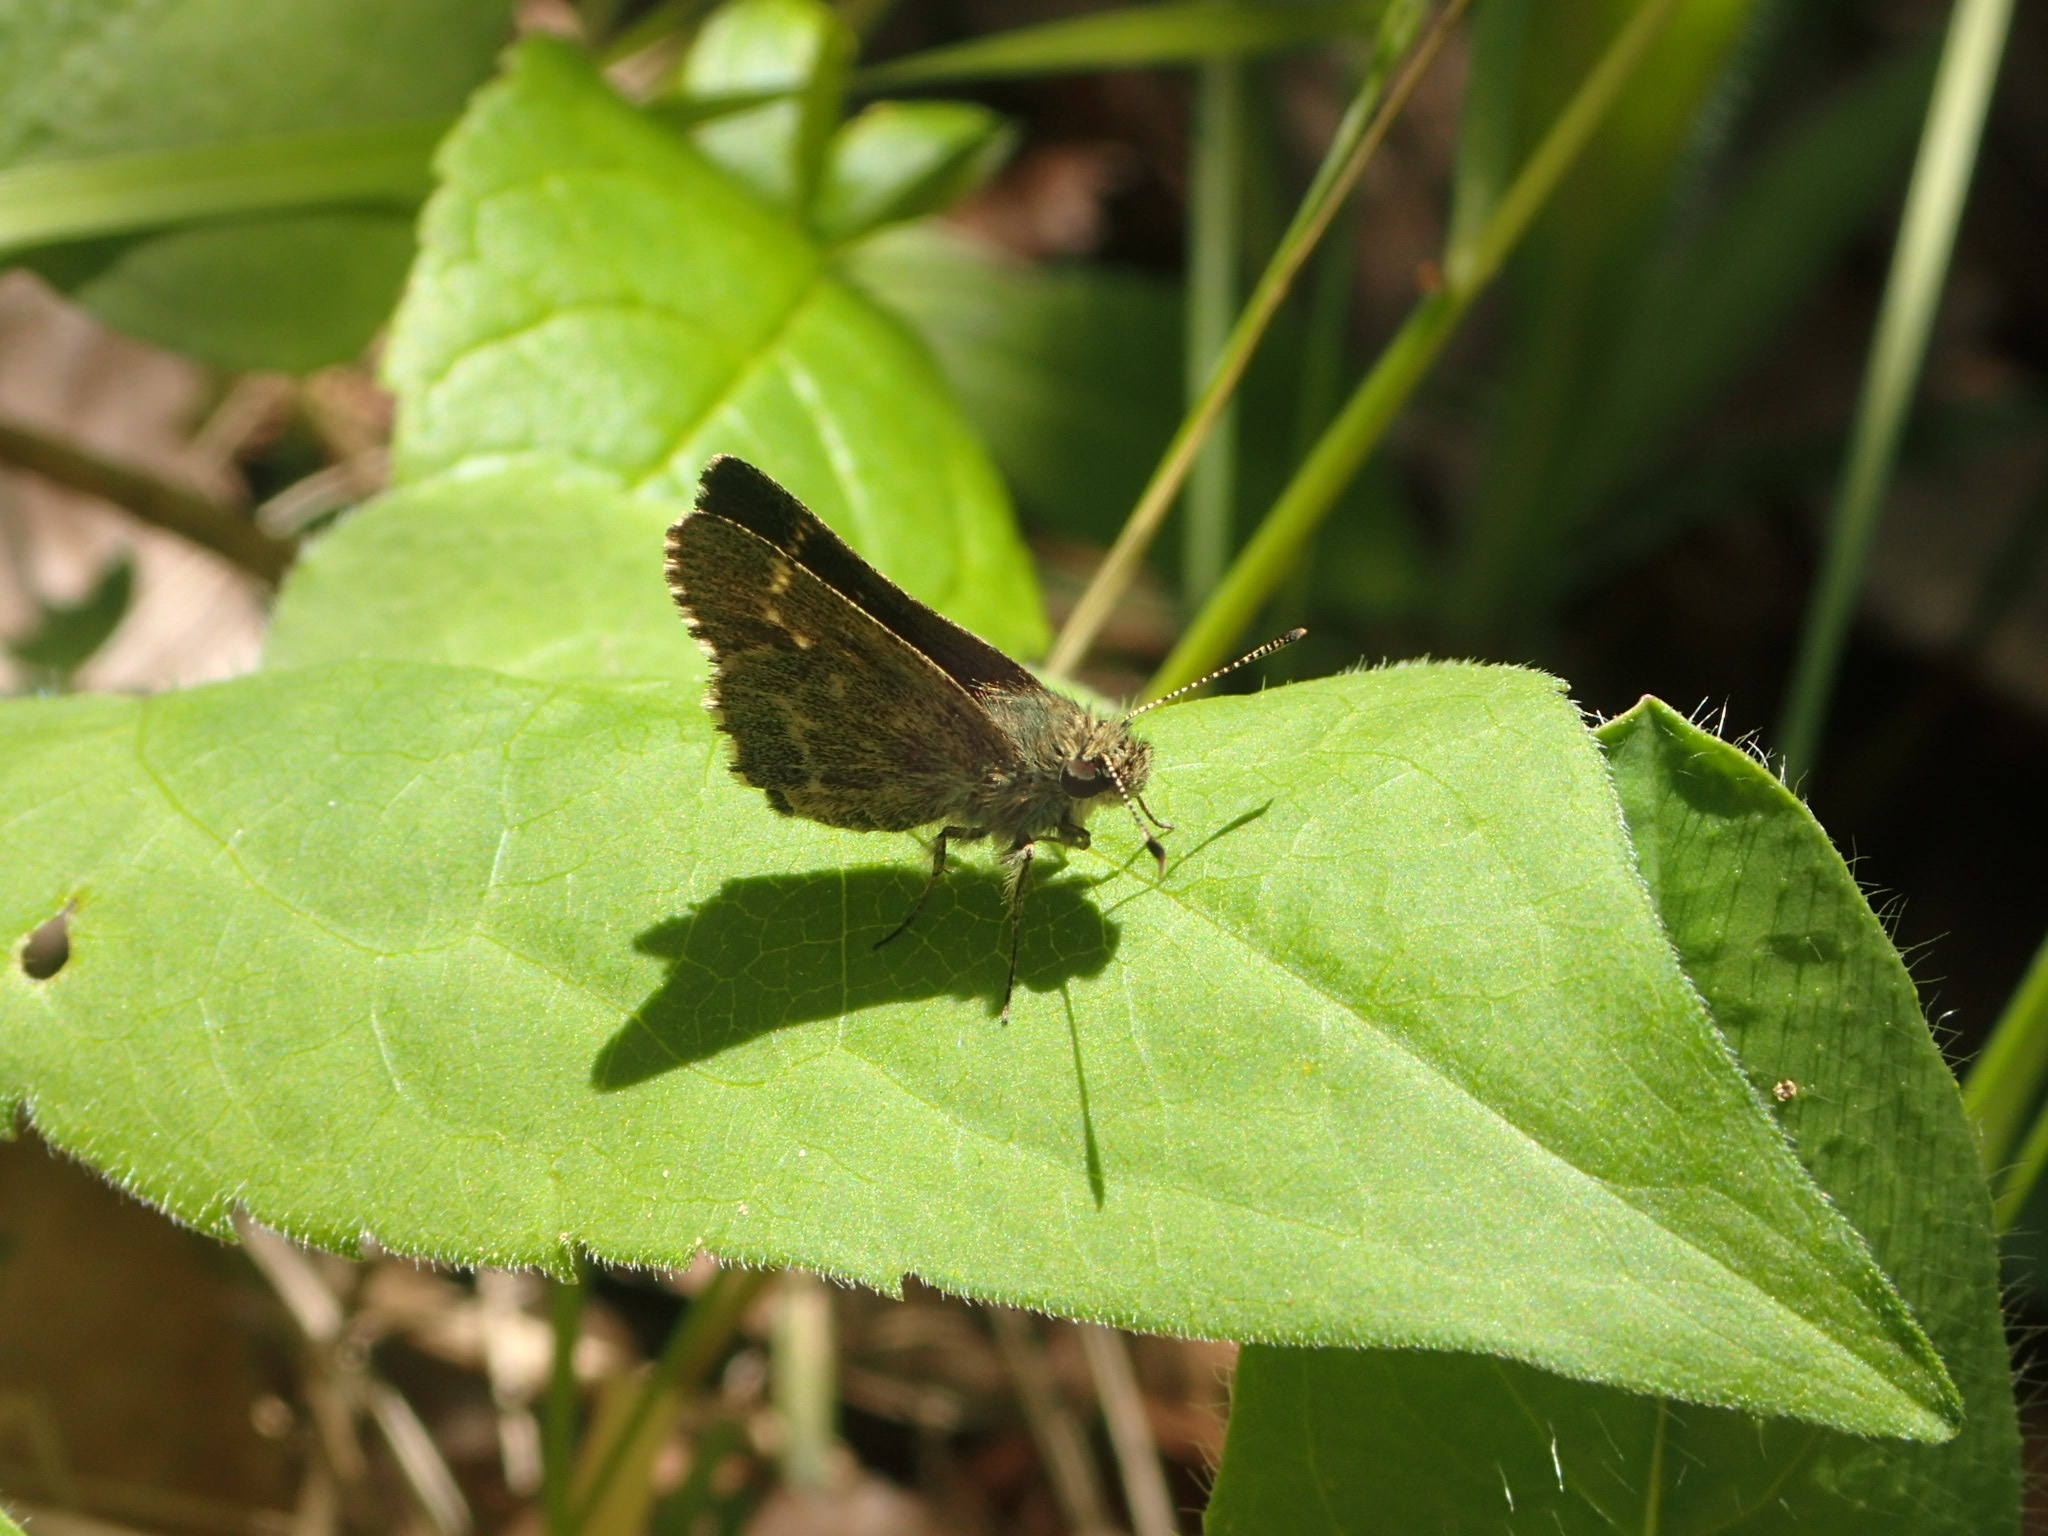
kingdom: Animalia
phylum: Arthropoda
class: Insecta
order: Lepidoptera
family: Hesperiidae
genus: Mastor
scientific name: Mastor hegon
